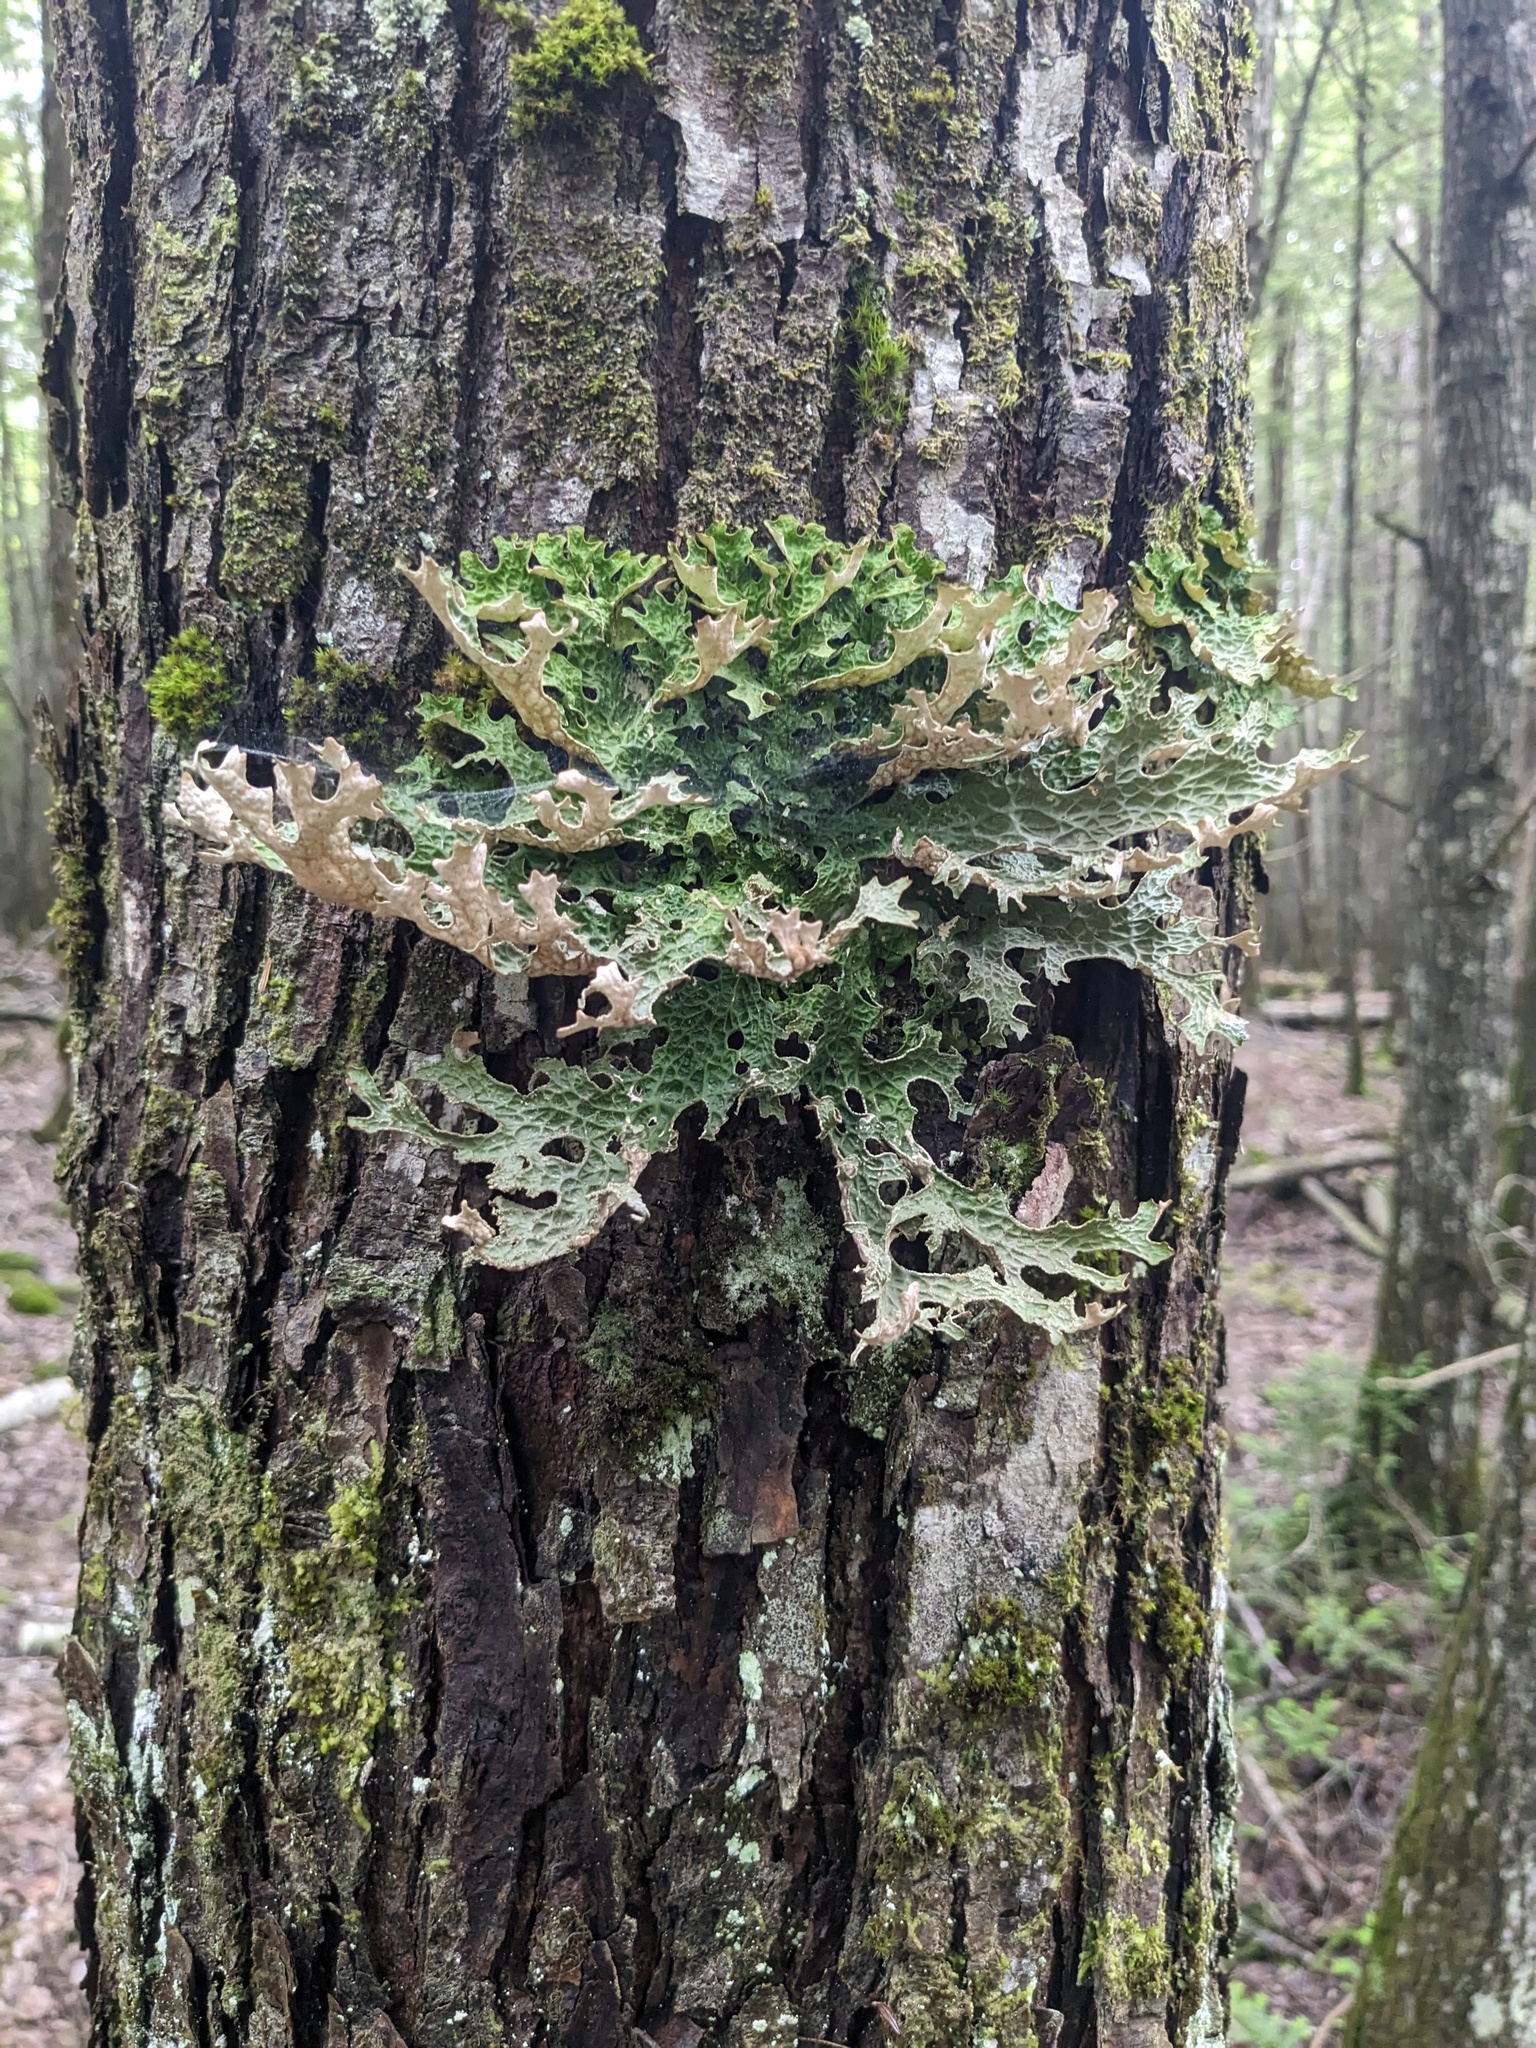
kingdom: Fungi
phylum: Ascomycota
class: Lecanoromycetes
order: Peltigerales
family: Lobariaceae
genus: Lobaria
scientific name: Lobaria pulmonaria
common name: Lungwort
